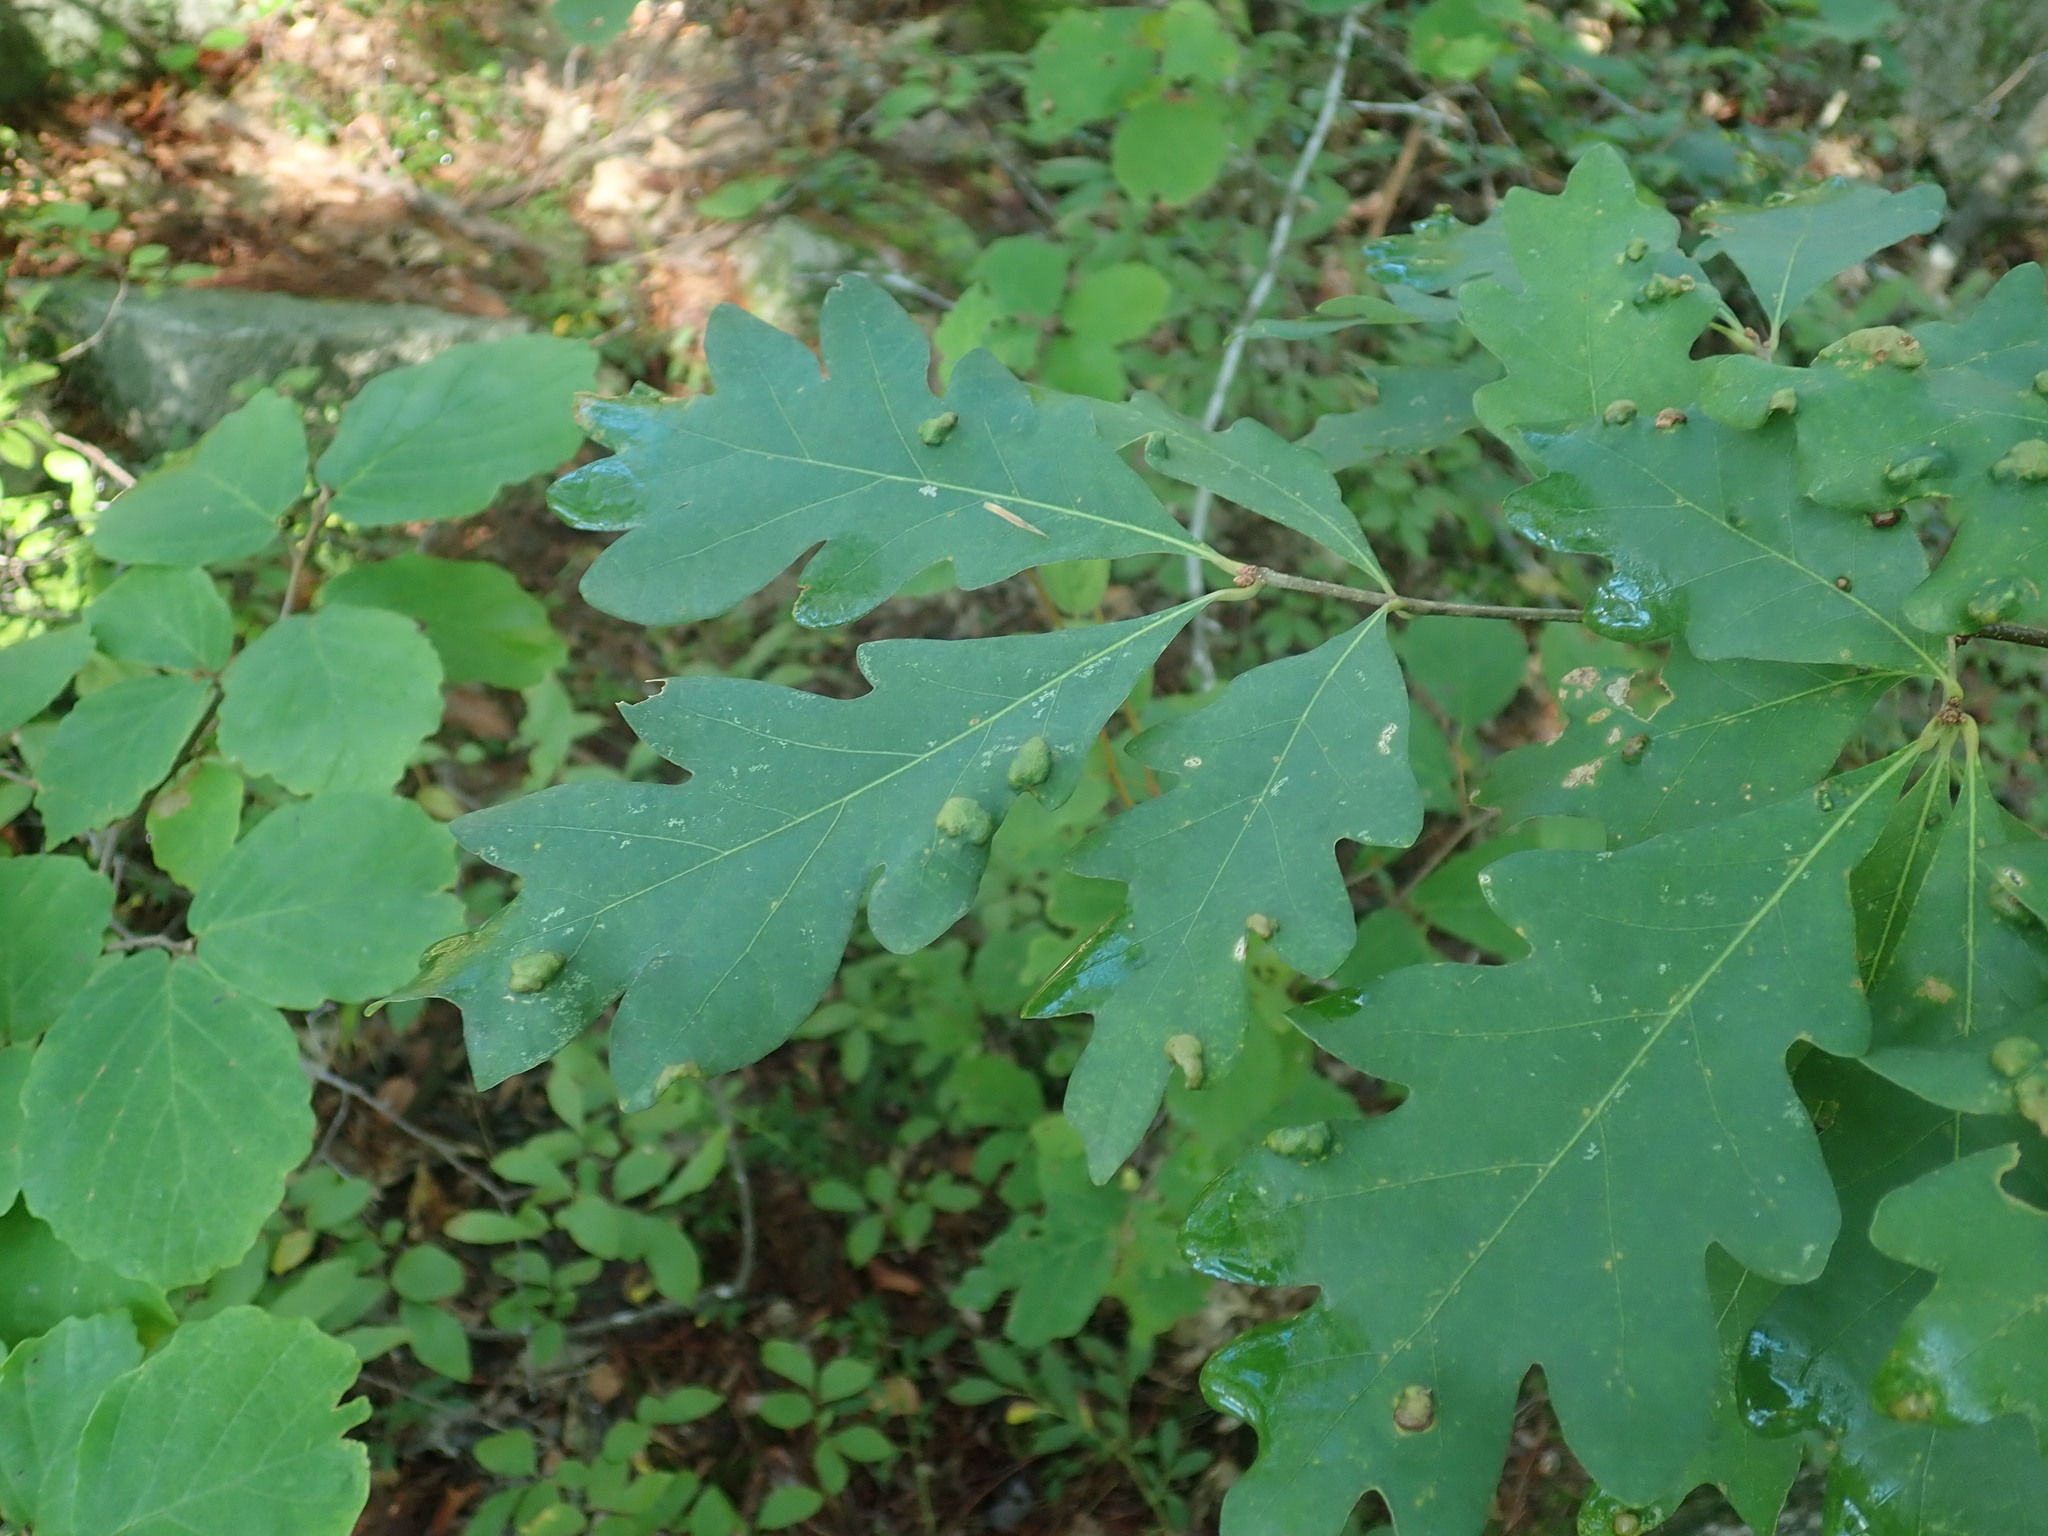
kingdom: Plantae
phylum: Tracheophyta
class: Magnoliopsida
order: Fagales
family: Fagaceae
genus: Quercus
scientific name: Quercus alba
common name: White oak
